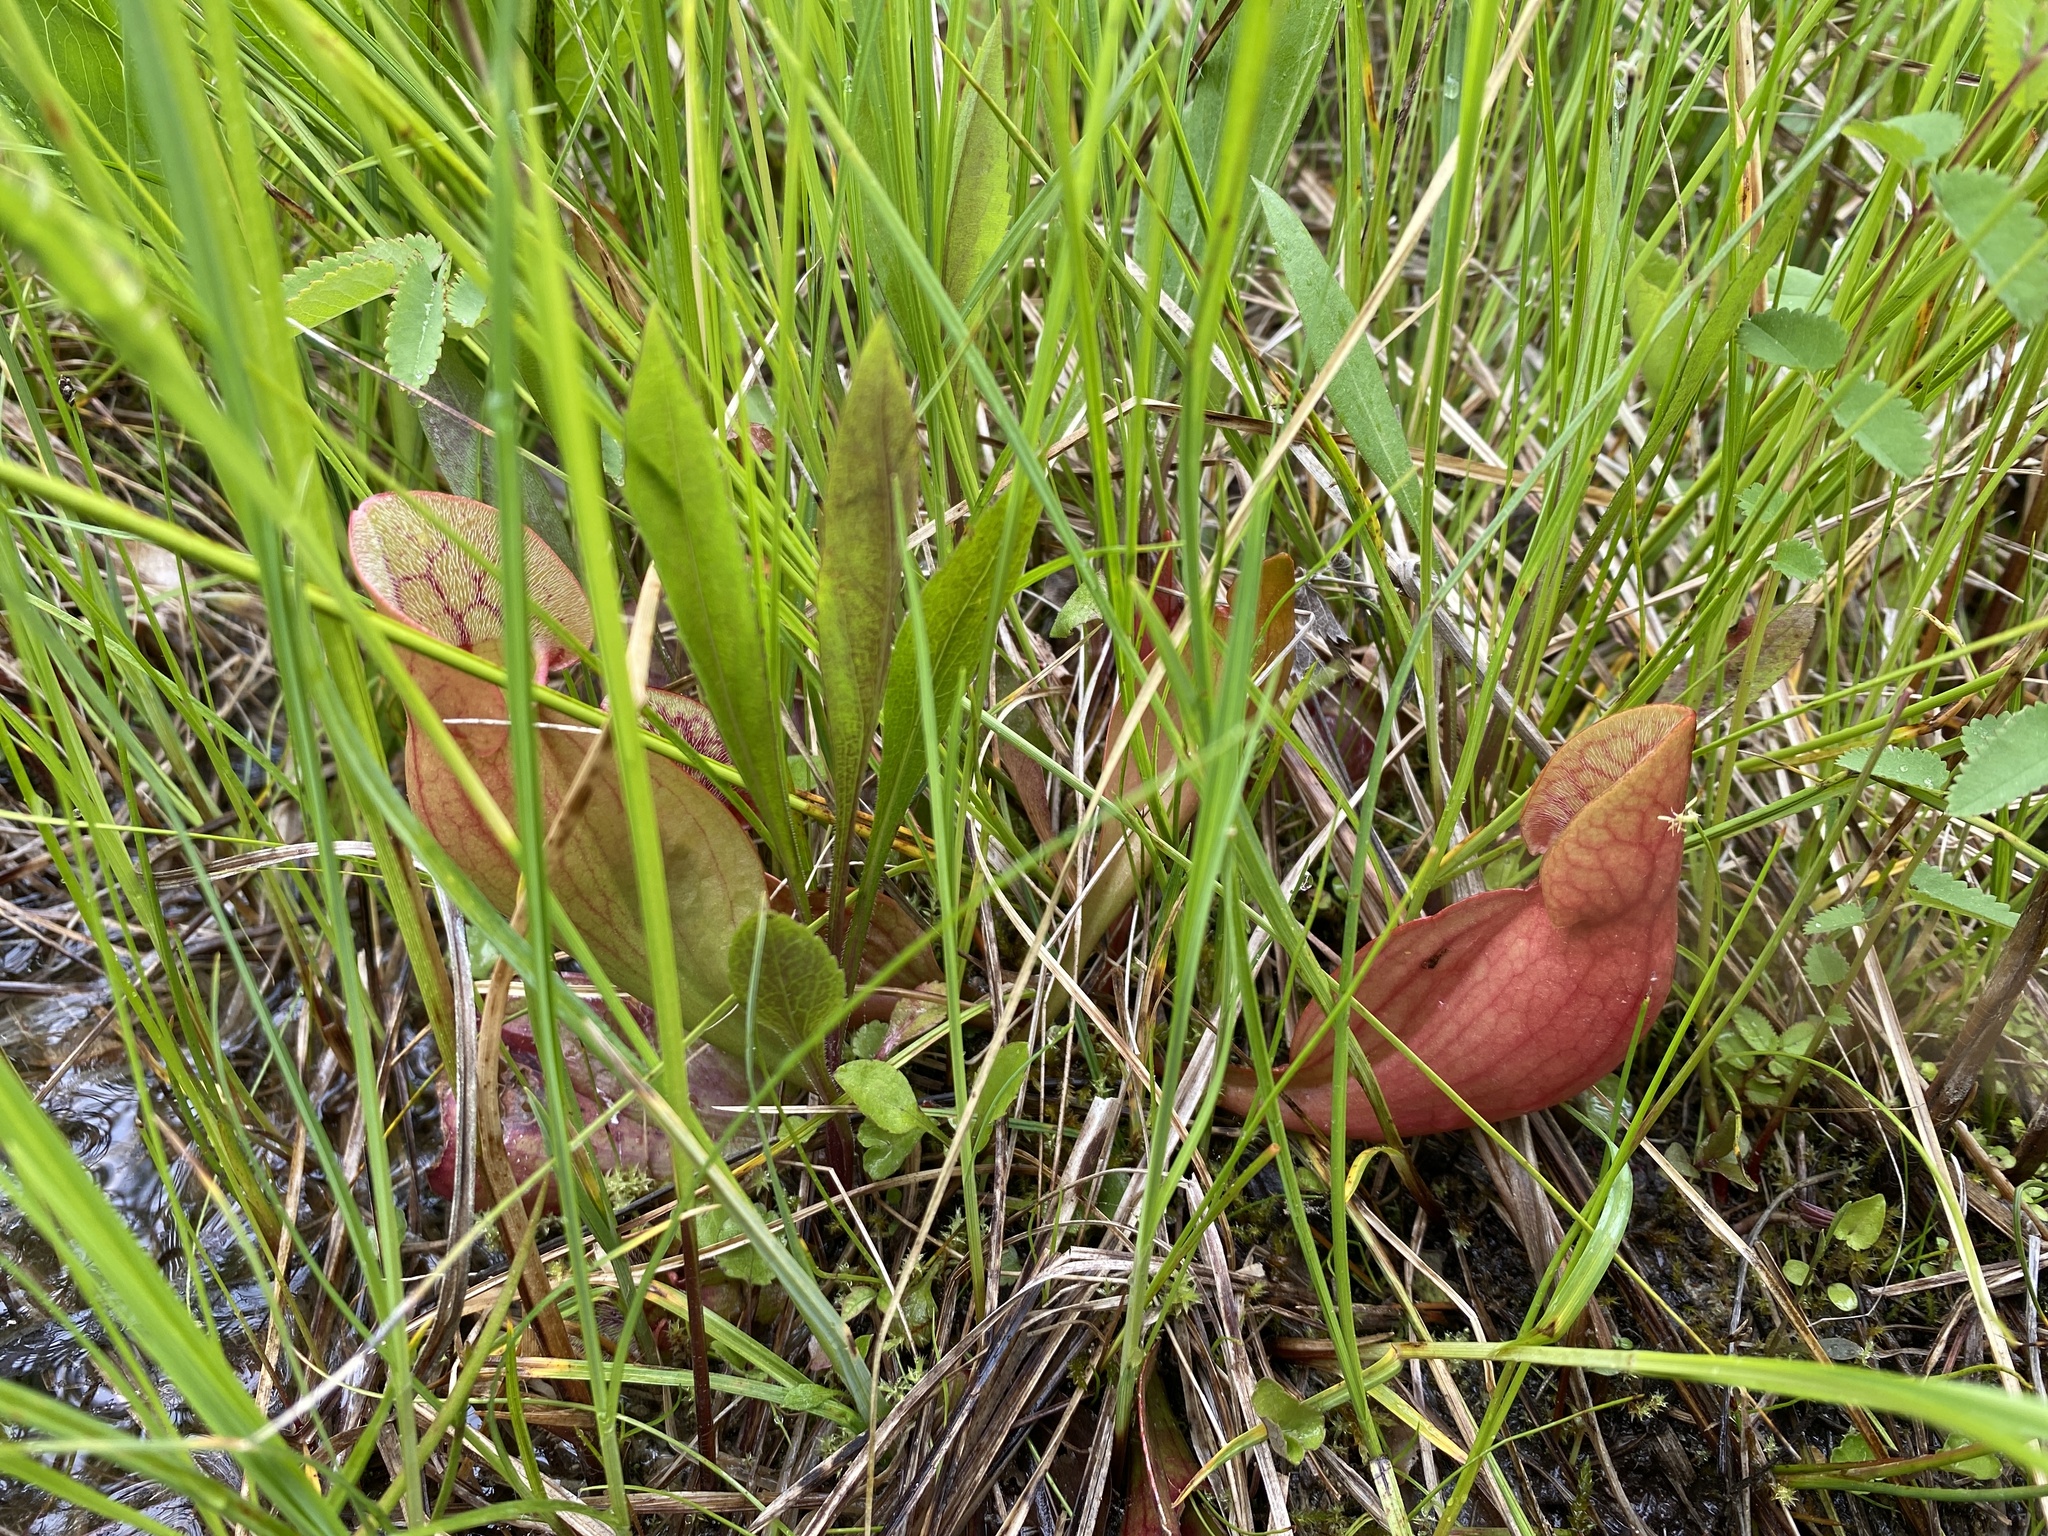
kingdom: Plantae
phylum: Tracheophyta
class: Magnoliopsida
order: Ericales
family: Sarraceniaceae
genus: Sarracenia
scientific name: Sarracenia purpurea
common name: Pitcherplant
